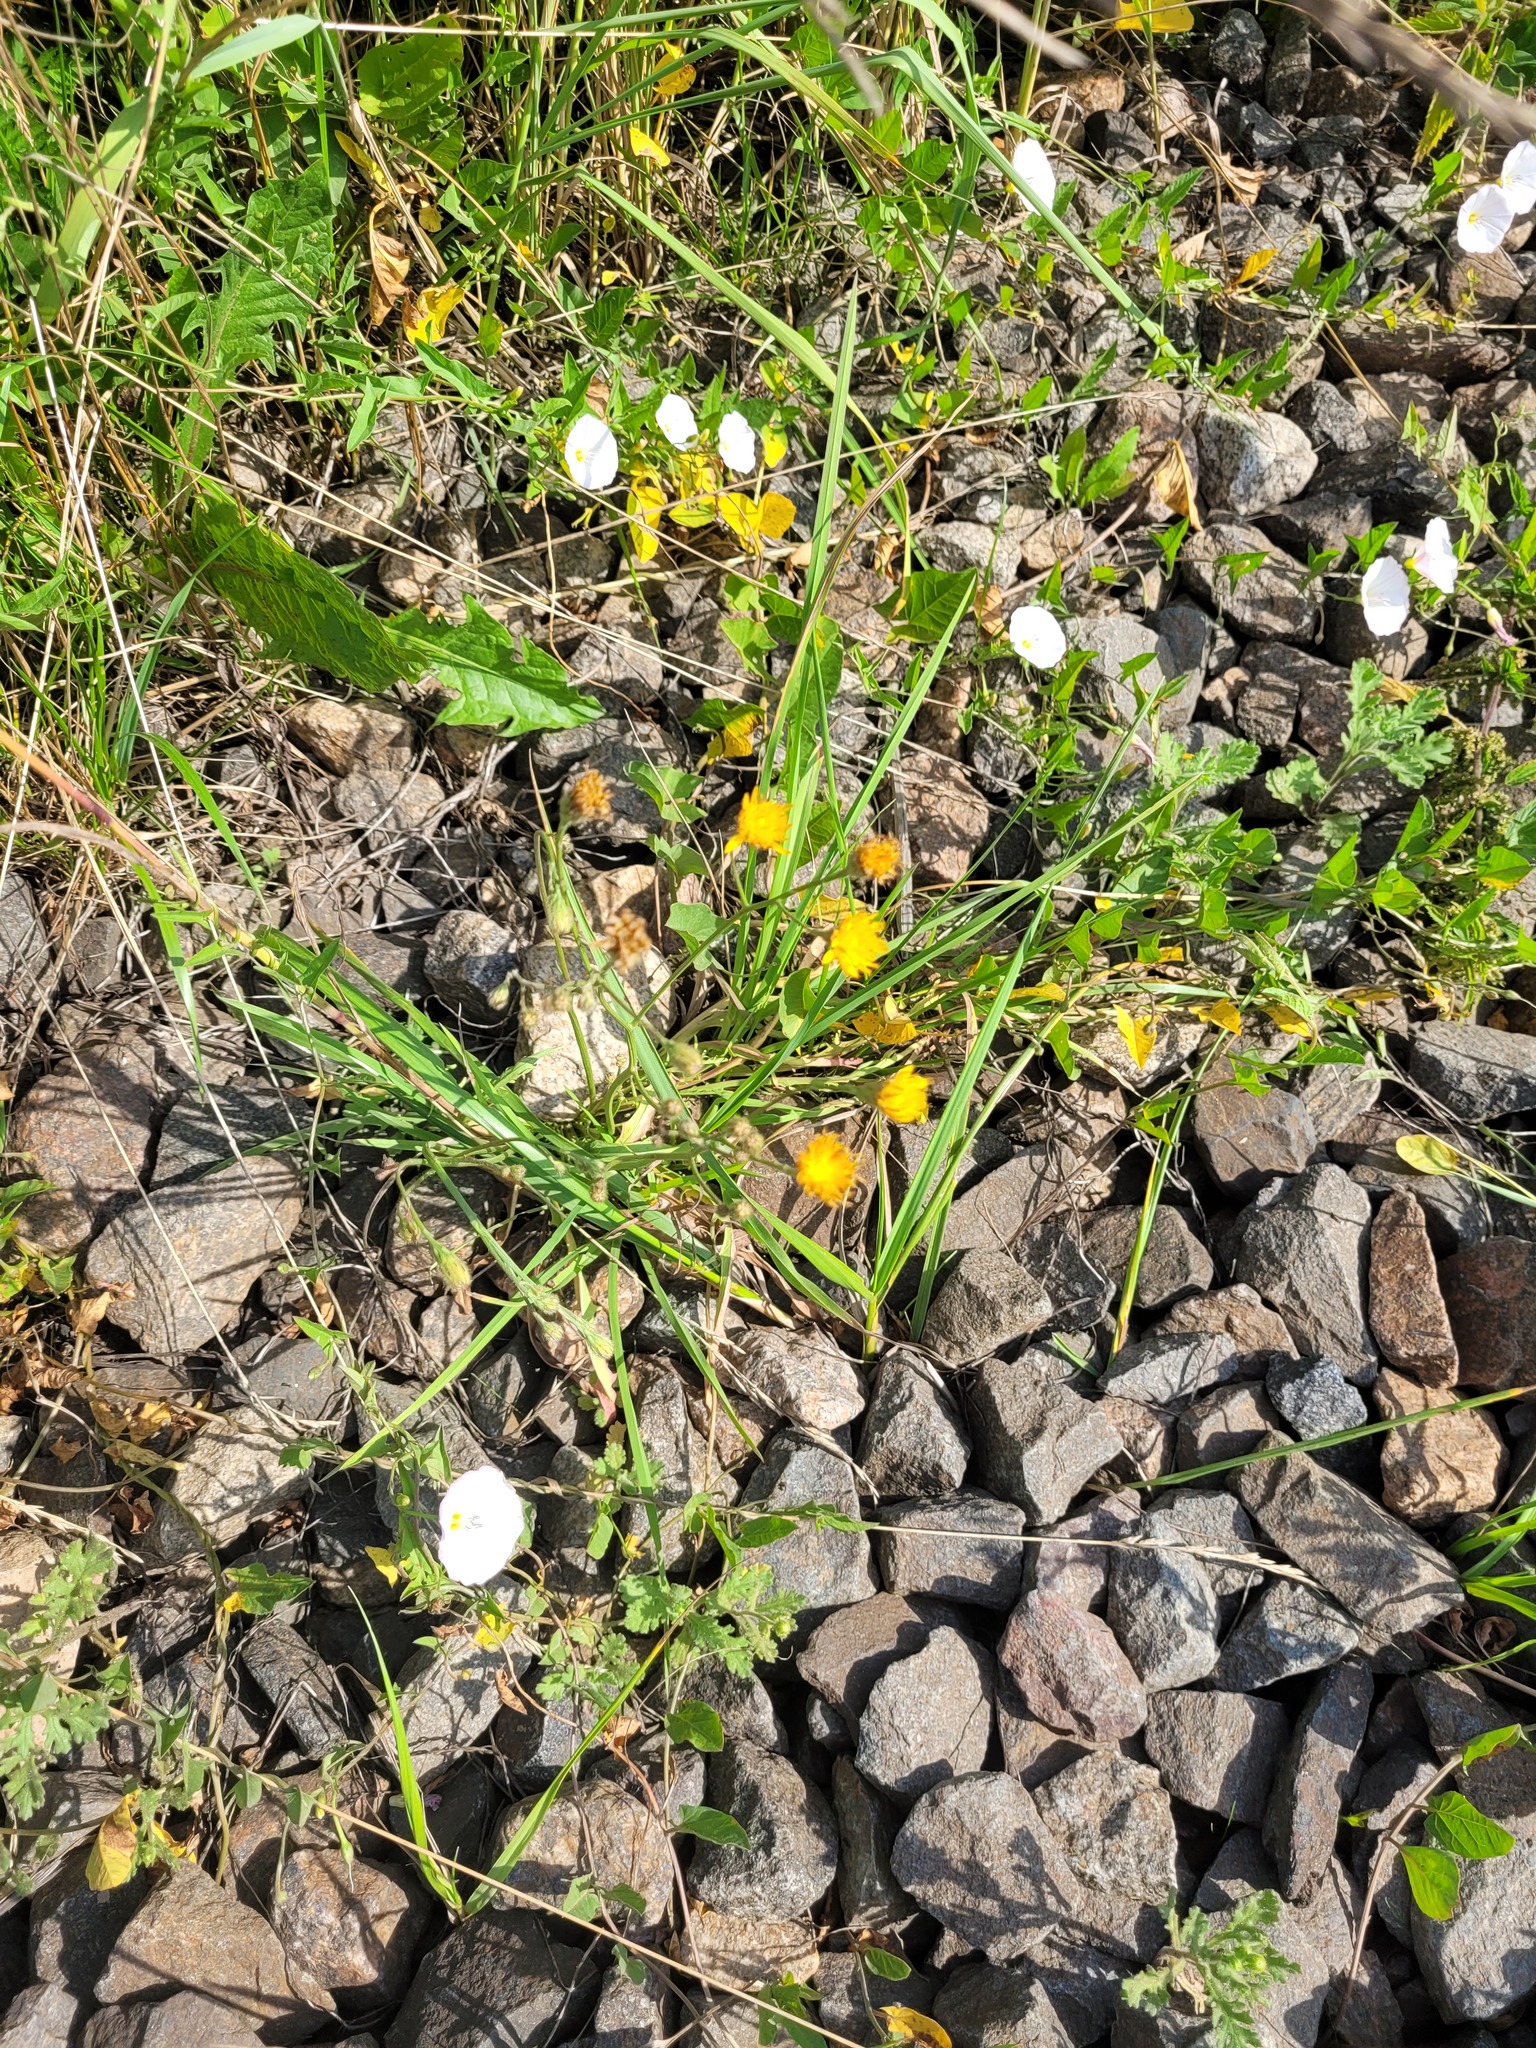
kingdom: Plantae
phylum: Tracheophyta
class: Magnoliopsida
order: Asterales
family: Asteraceae
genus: Scorzoneroides
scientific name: Scorzoneroides autumnalis
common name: Autumn hawkbit
